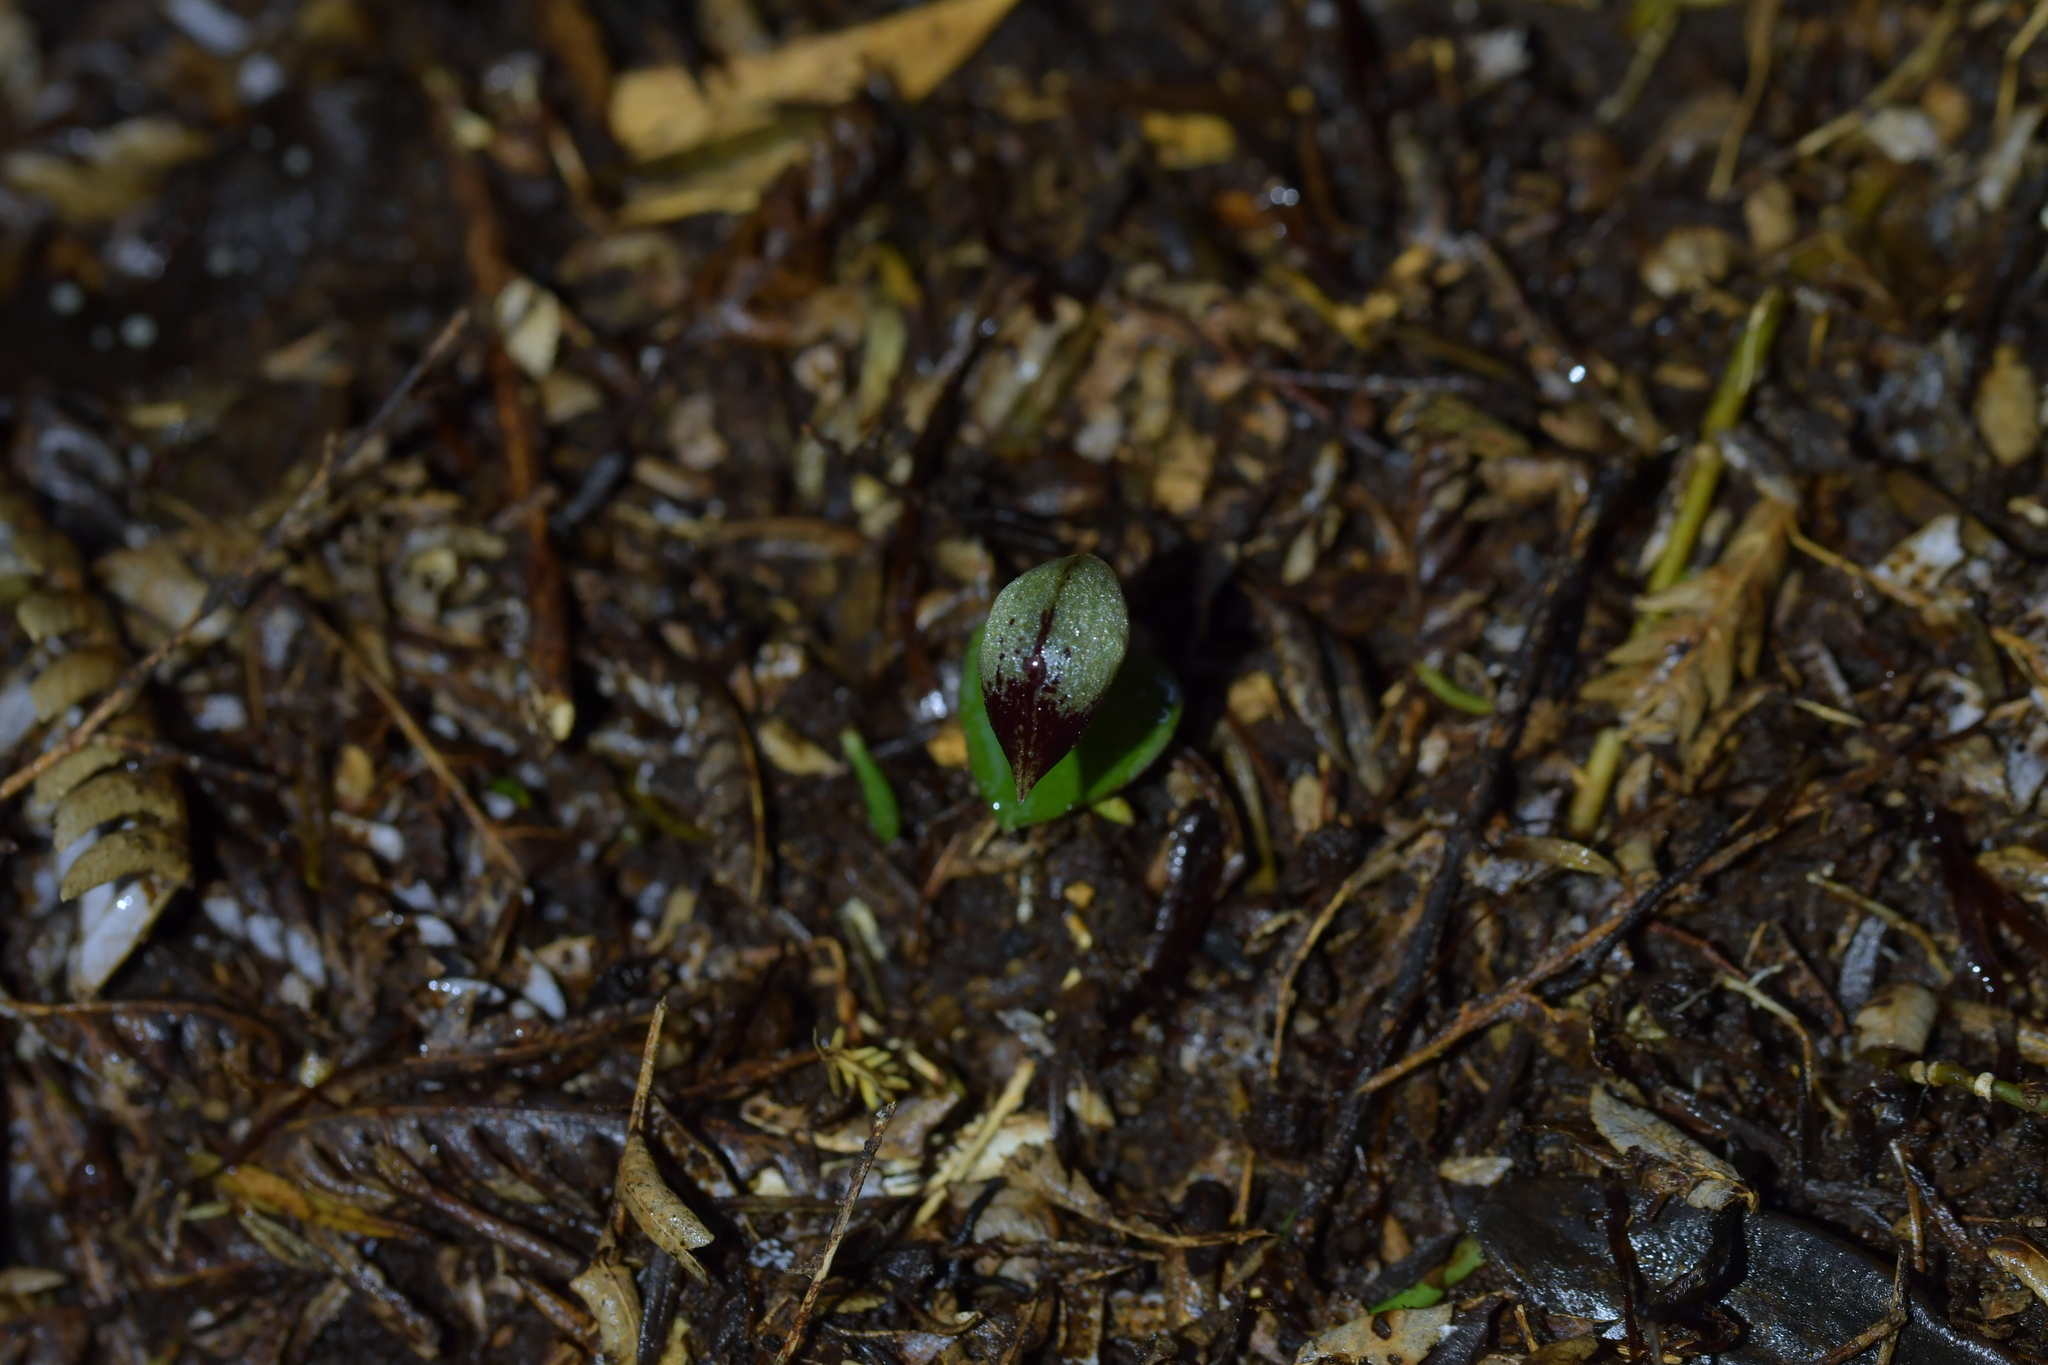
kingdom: Plantae
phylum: Tracheophyta
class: Liliopsida
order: Asparagales
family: Orchidaceae
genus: Corybas
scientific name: Corybas cheesemanii
